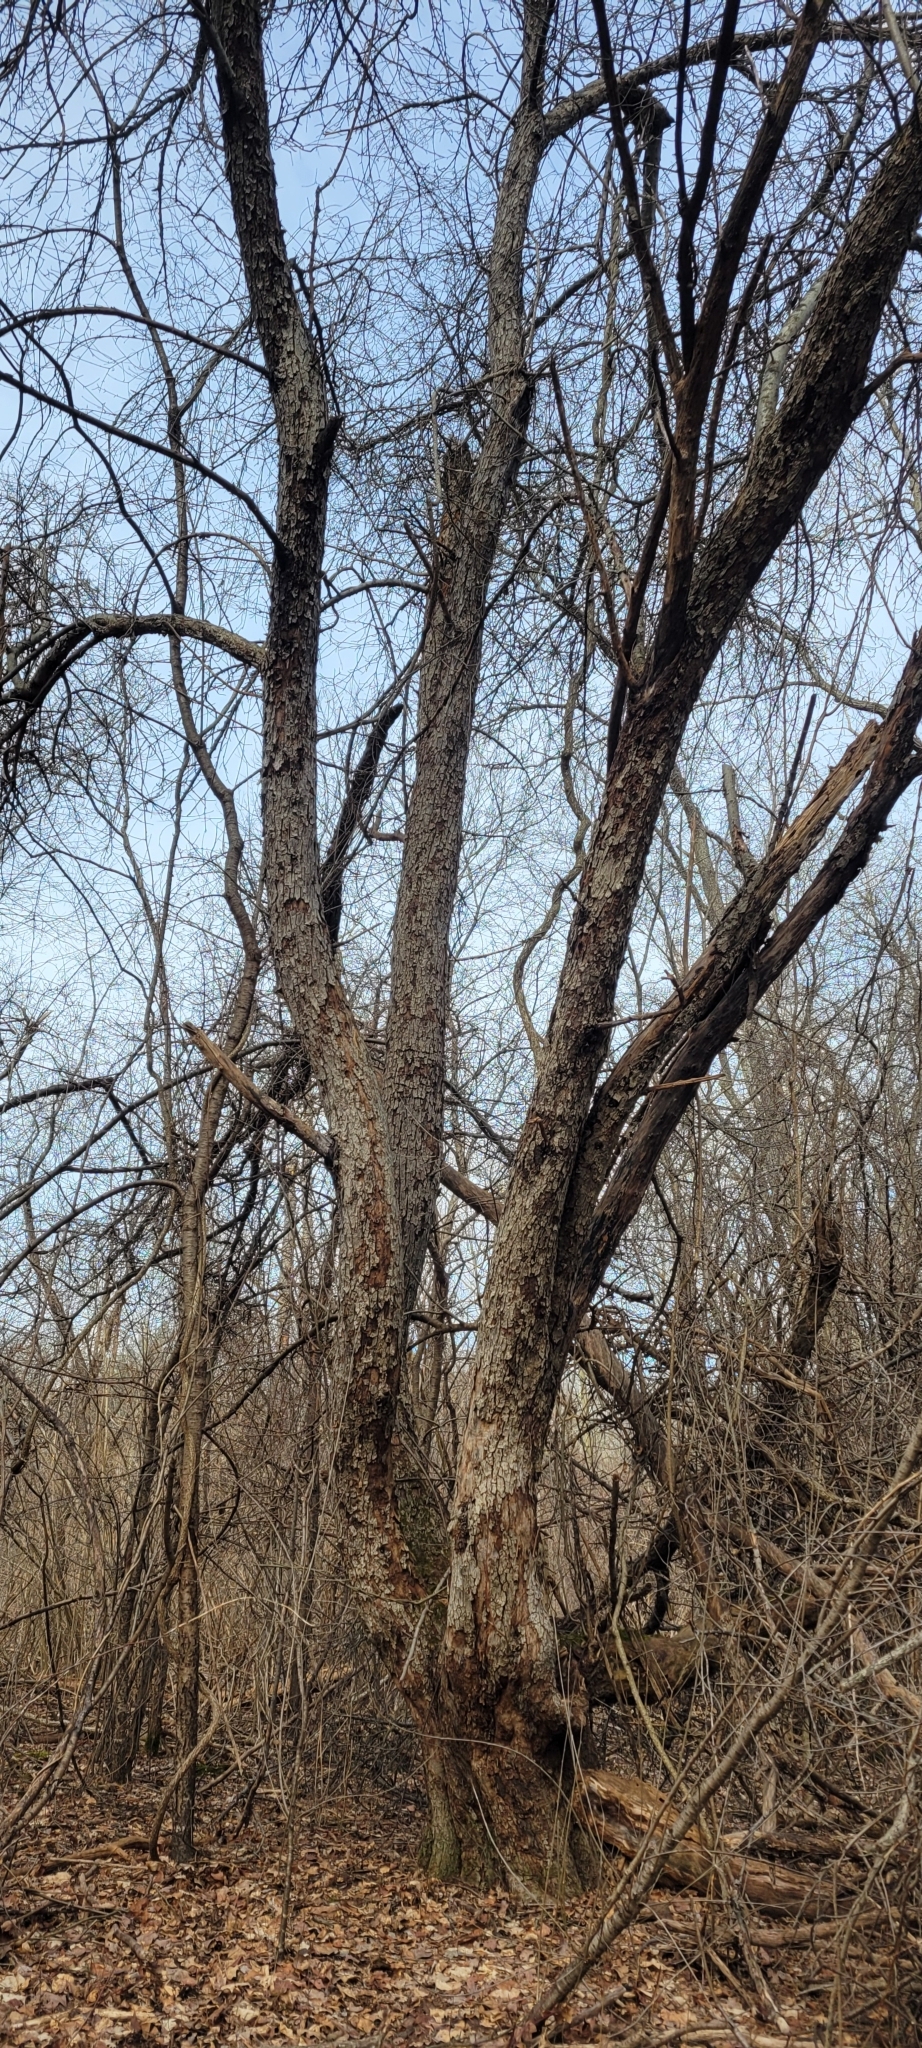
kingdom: Plantae
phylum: Tracheophyta
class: Magnoliopsida
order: Rosales
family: Rosaceae
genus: Malus
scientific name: Malus domestica
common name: Apple
